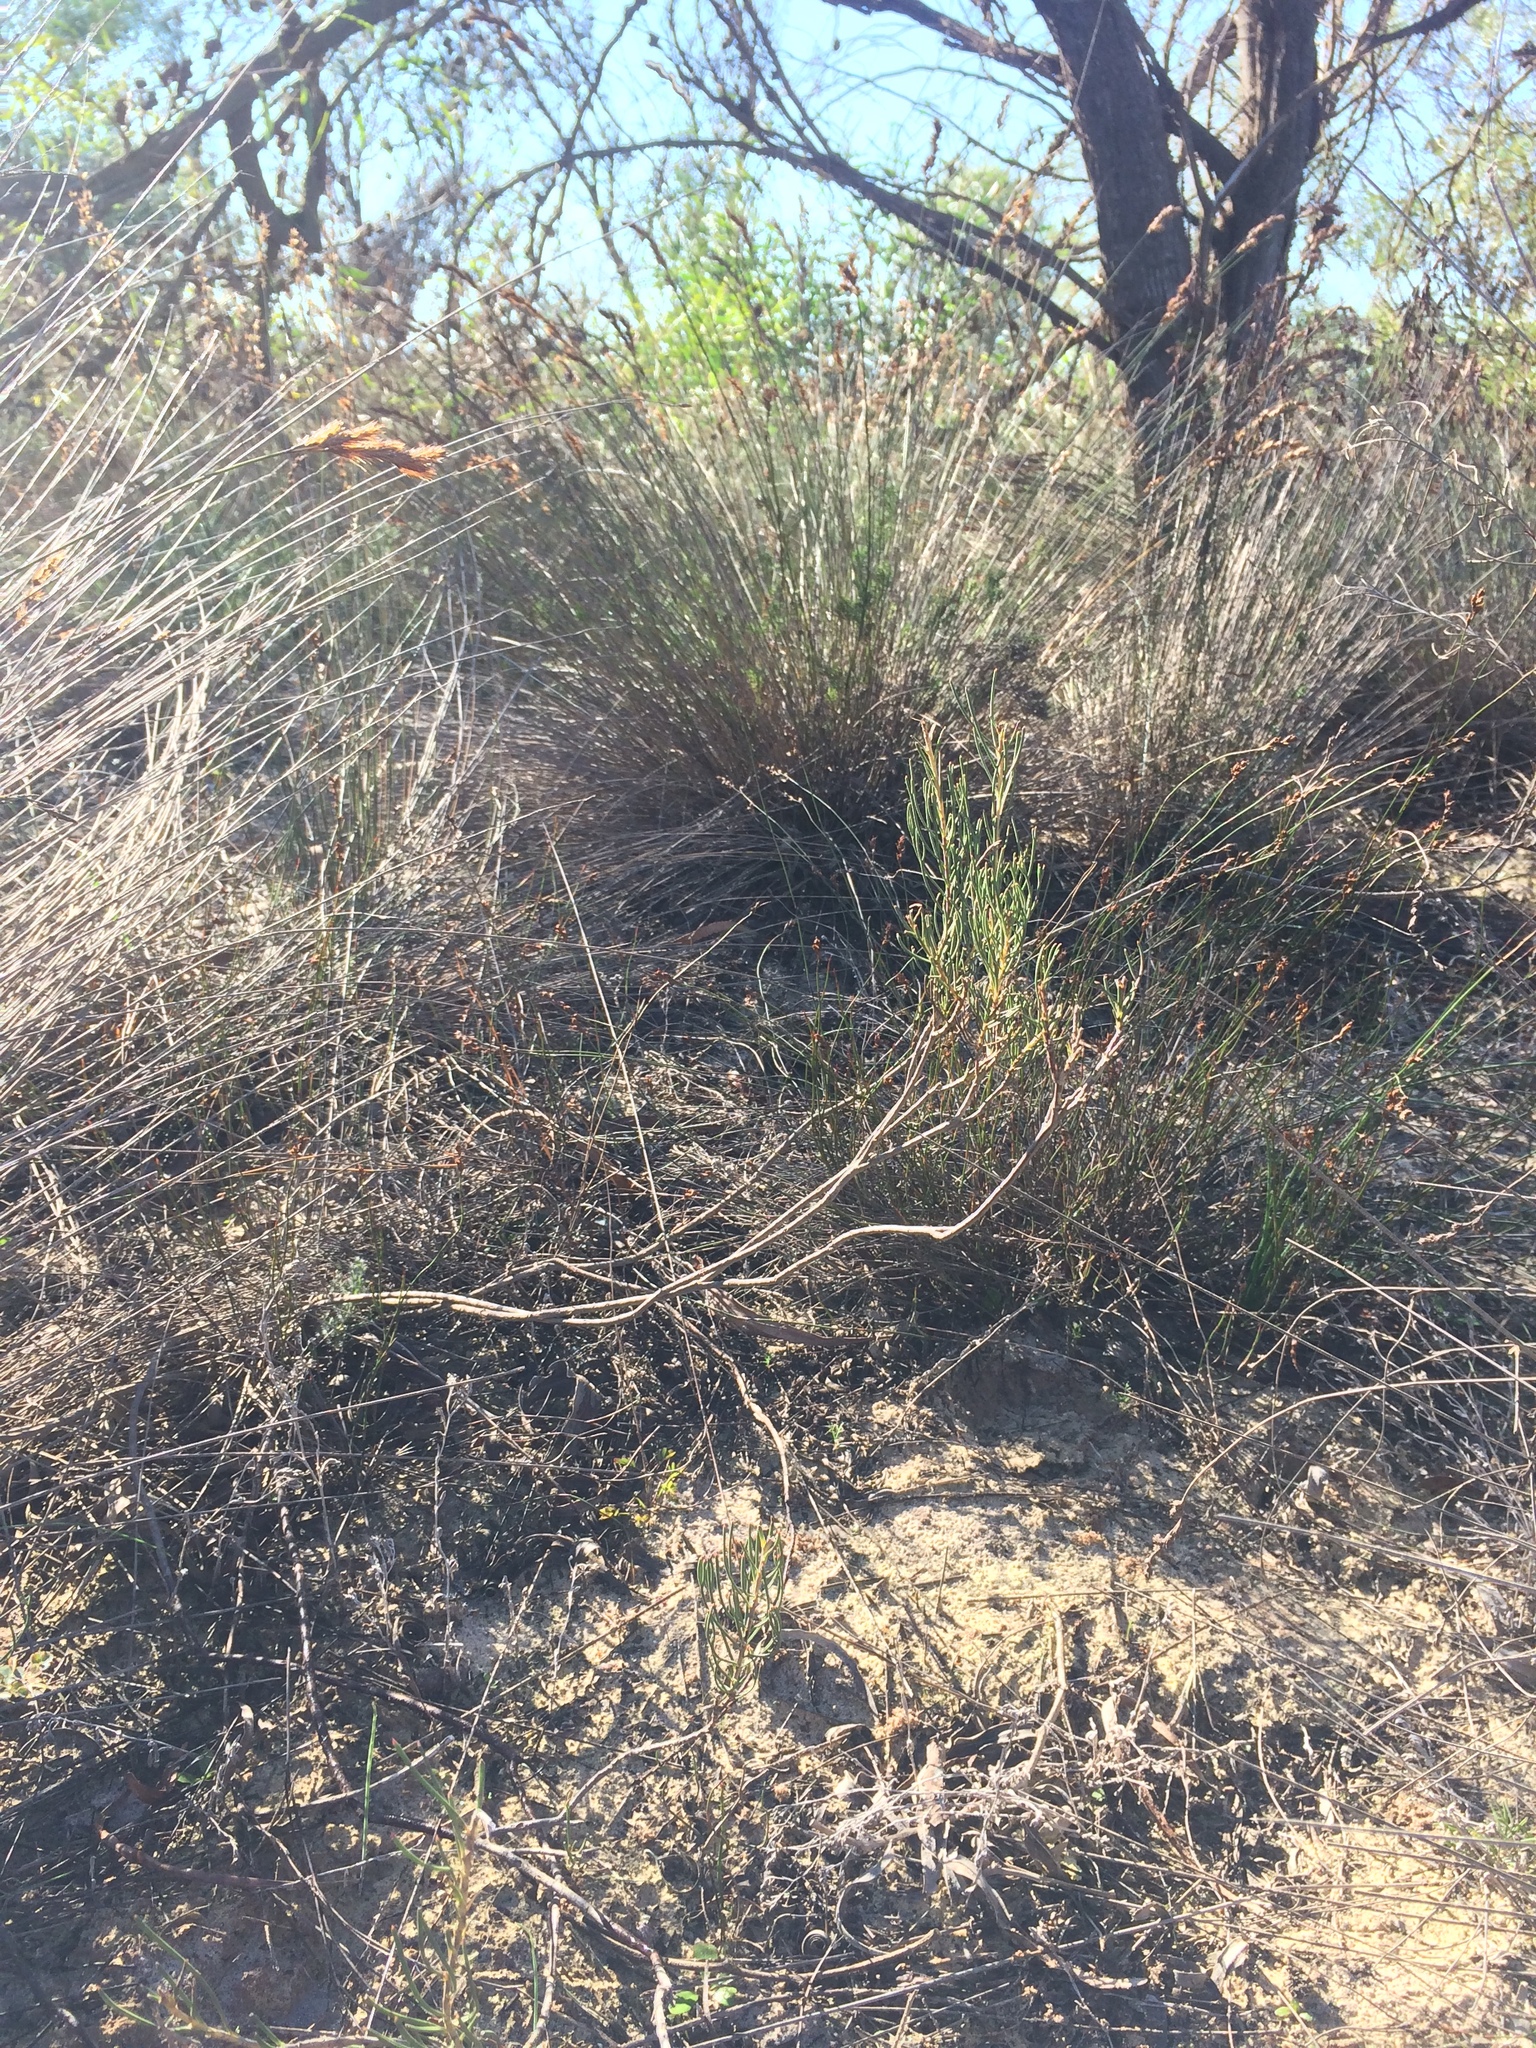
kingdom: Plantae
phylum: Tracheophyta
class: Magnoliopsida
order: Proteales
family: Proteaceae
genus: Serruria
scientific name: Serruria linearis
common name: Needle-leaf spiderhead
